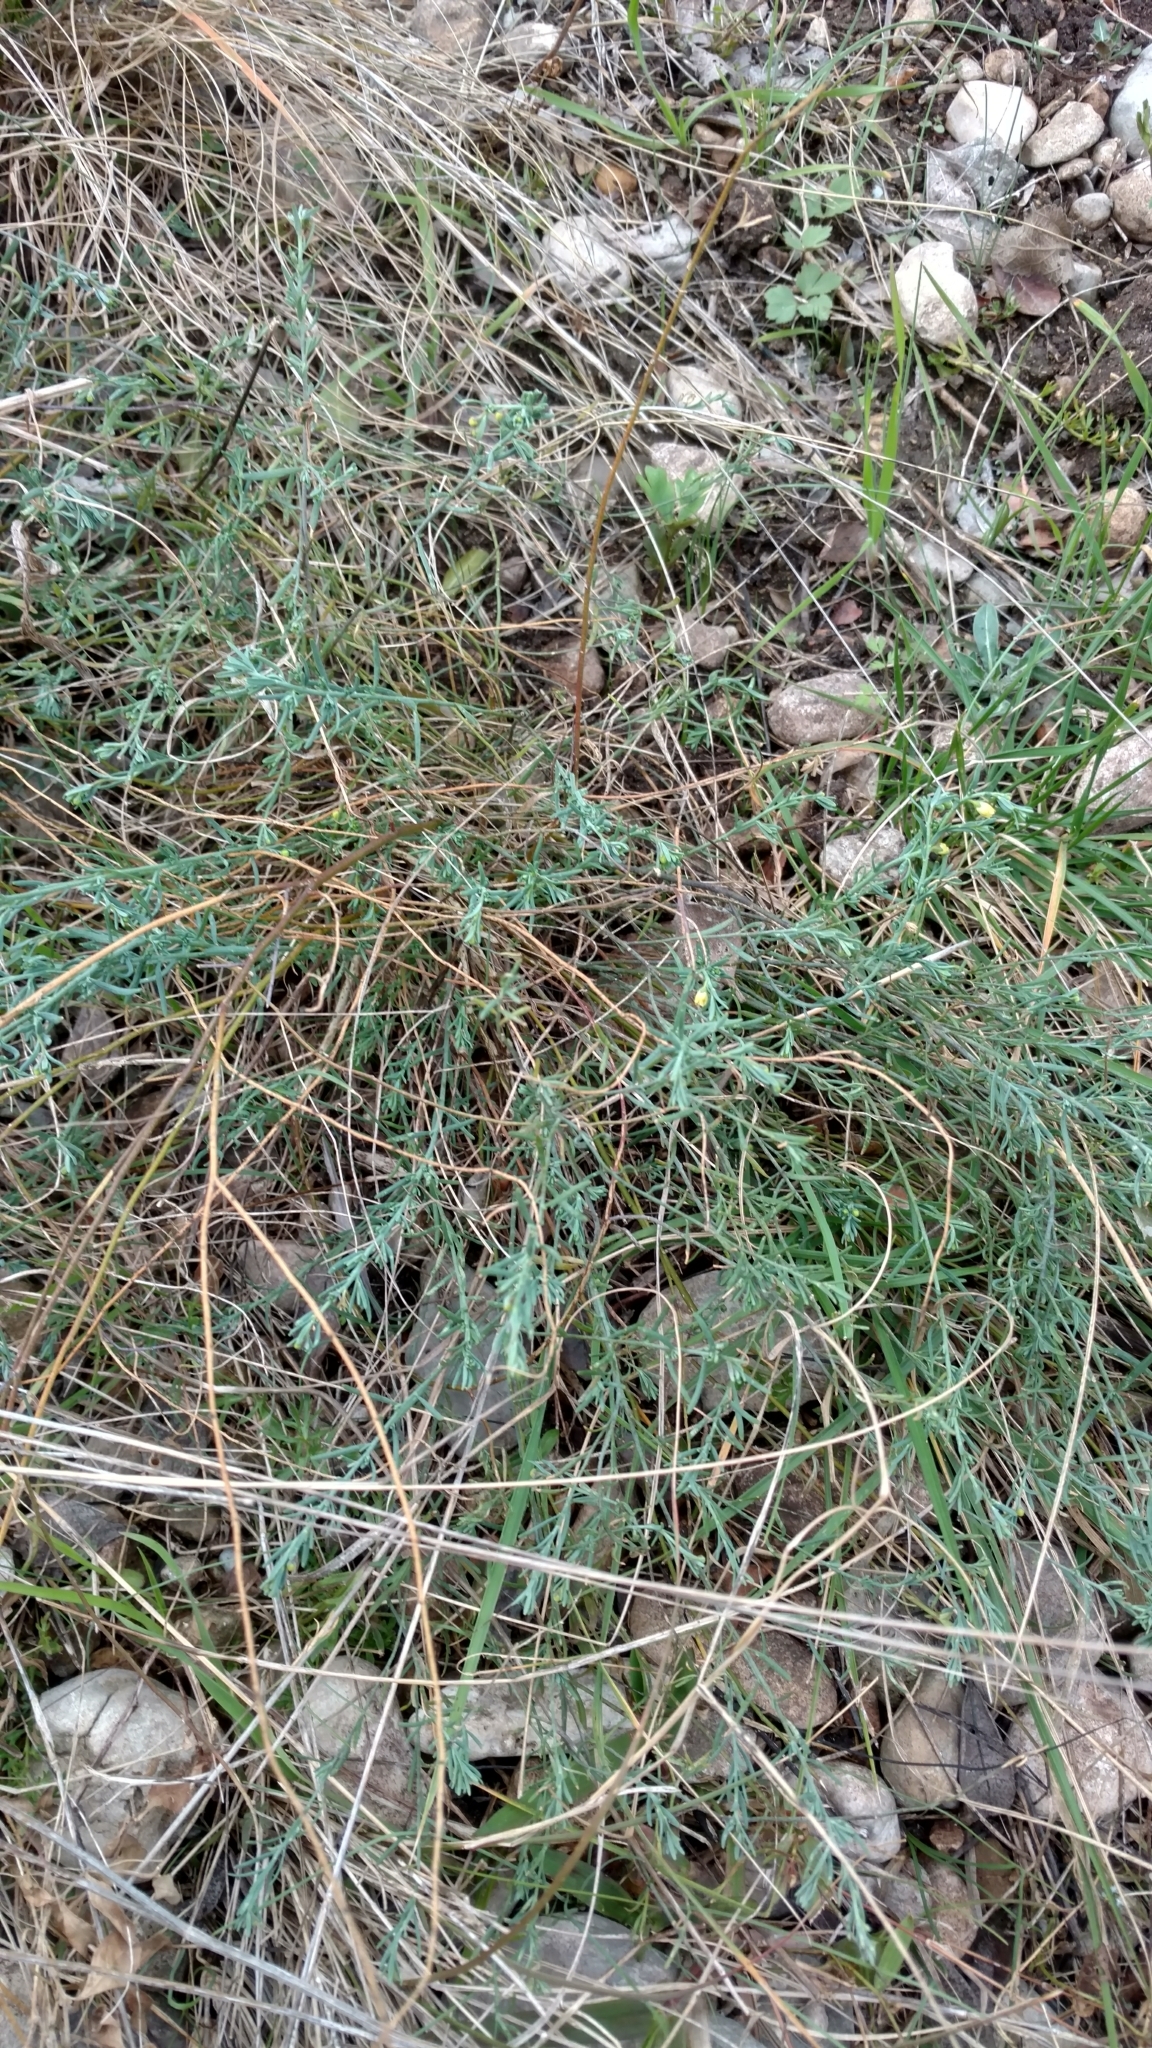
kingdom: Plantae
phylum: Tracheophyta
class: Magnoliopsida
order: Sapindales
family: Rutaceae
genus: Thamnosma
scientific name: Thamnosma texana
